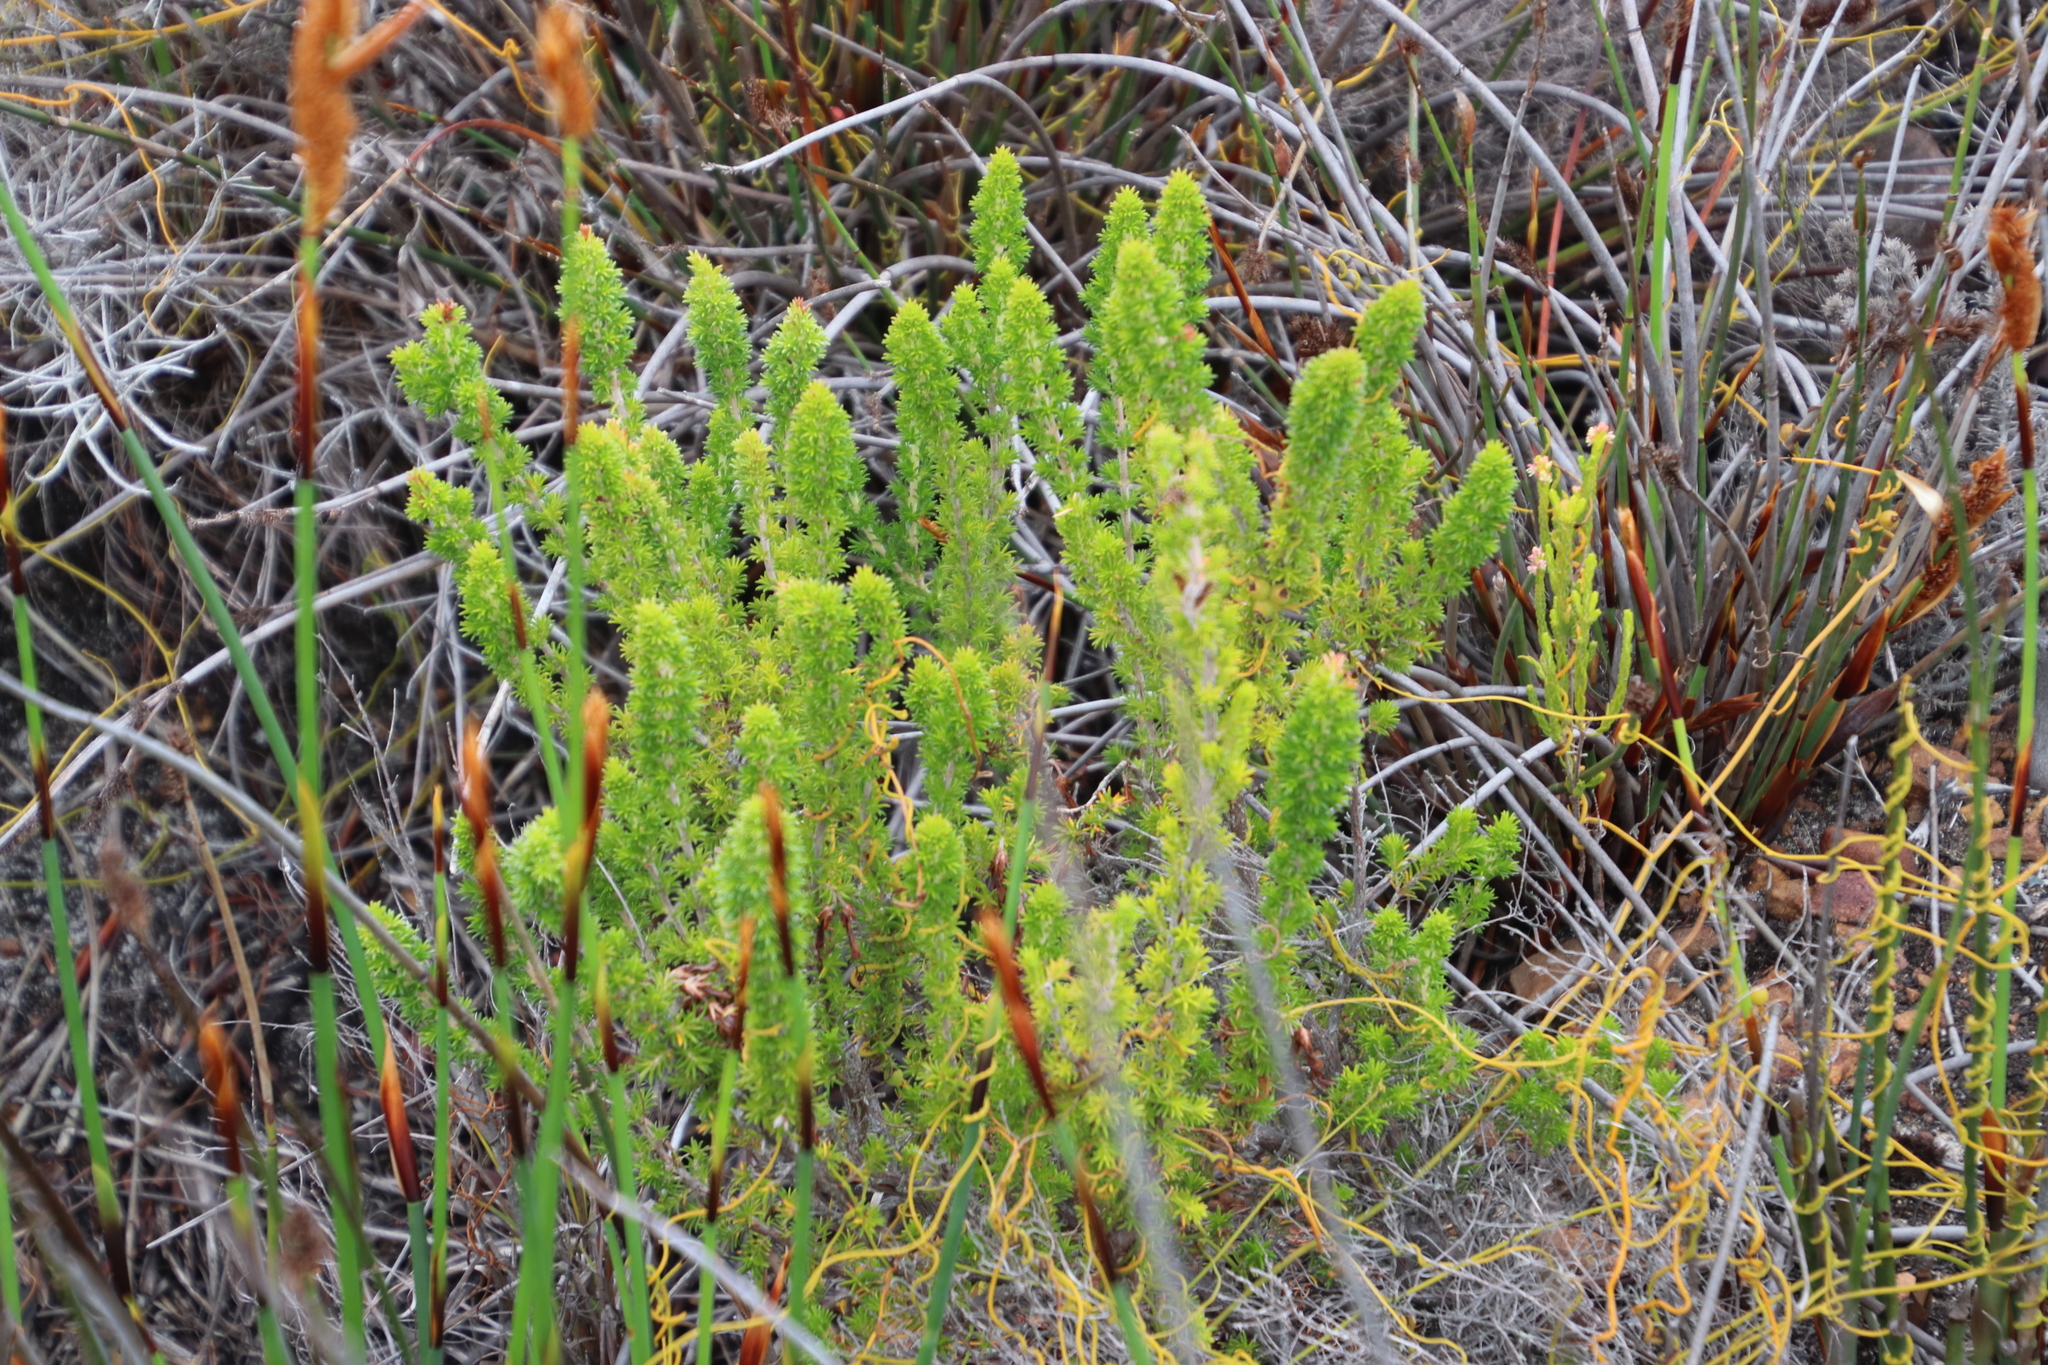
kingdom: Plantae
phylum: Tracheophyta
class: Magnoliopsida
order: Ericales
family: Ericaceae
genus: Erica
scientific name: Erica coccinea
